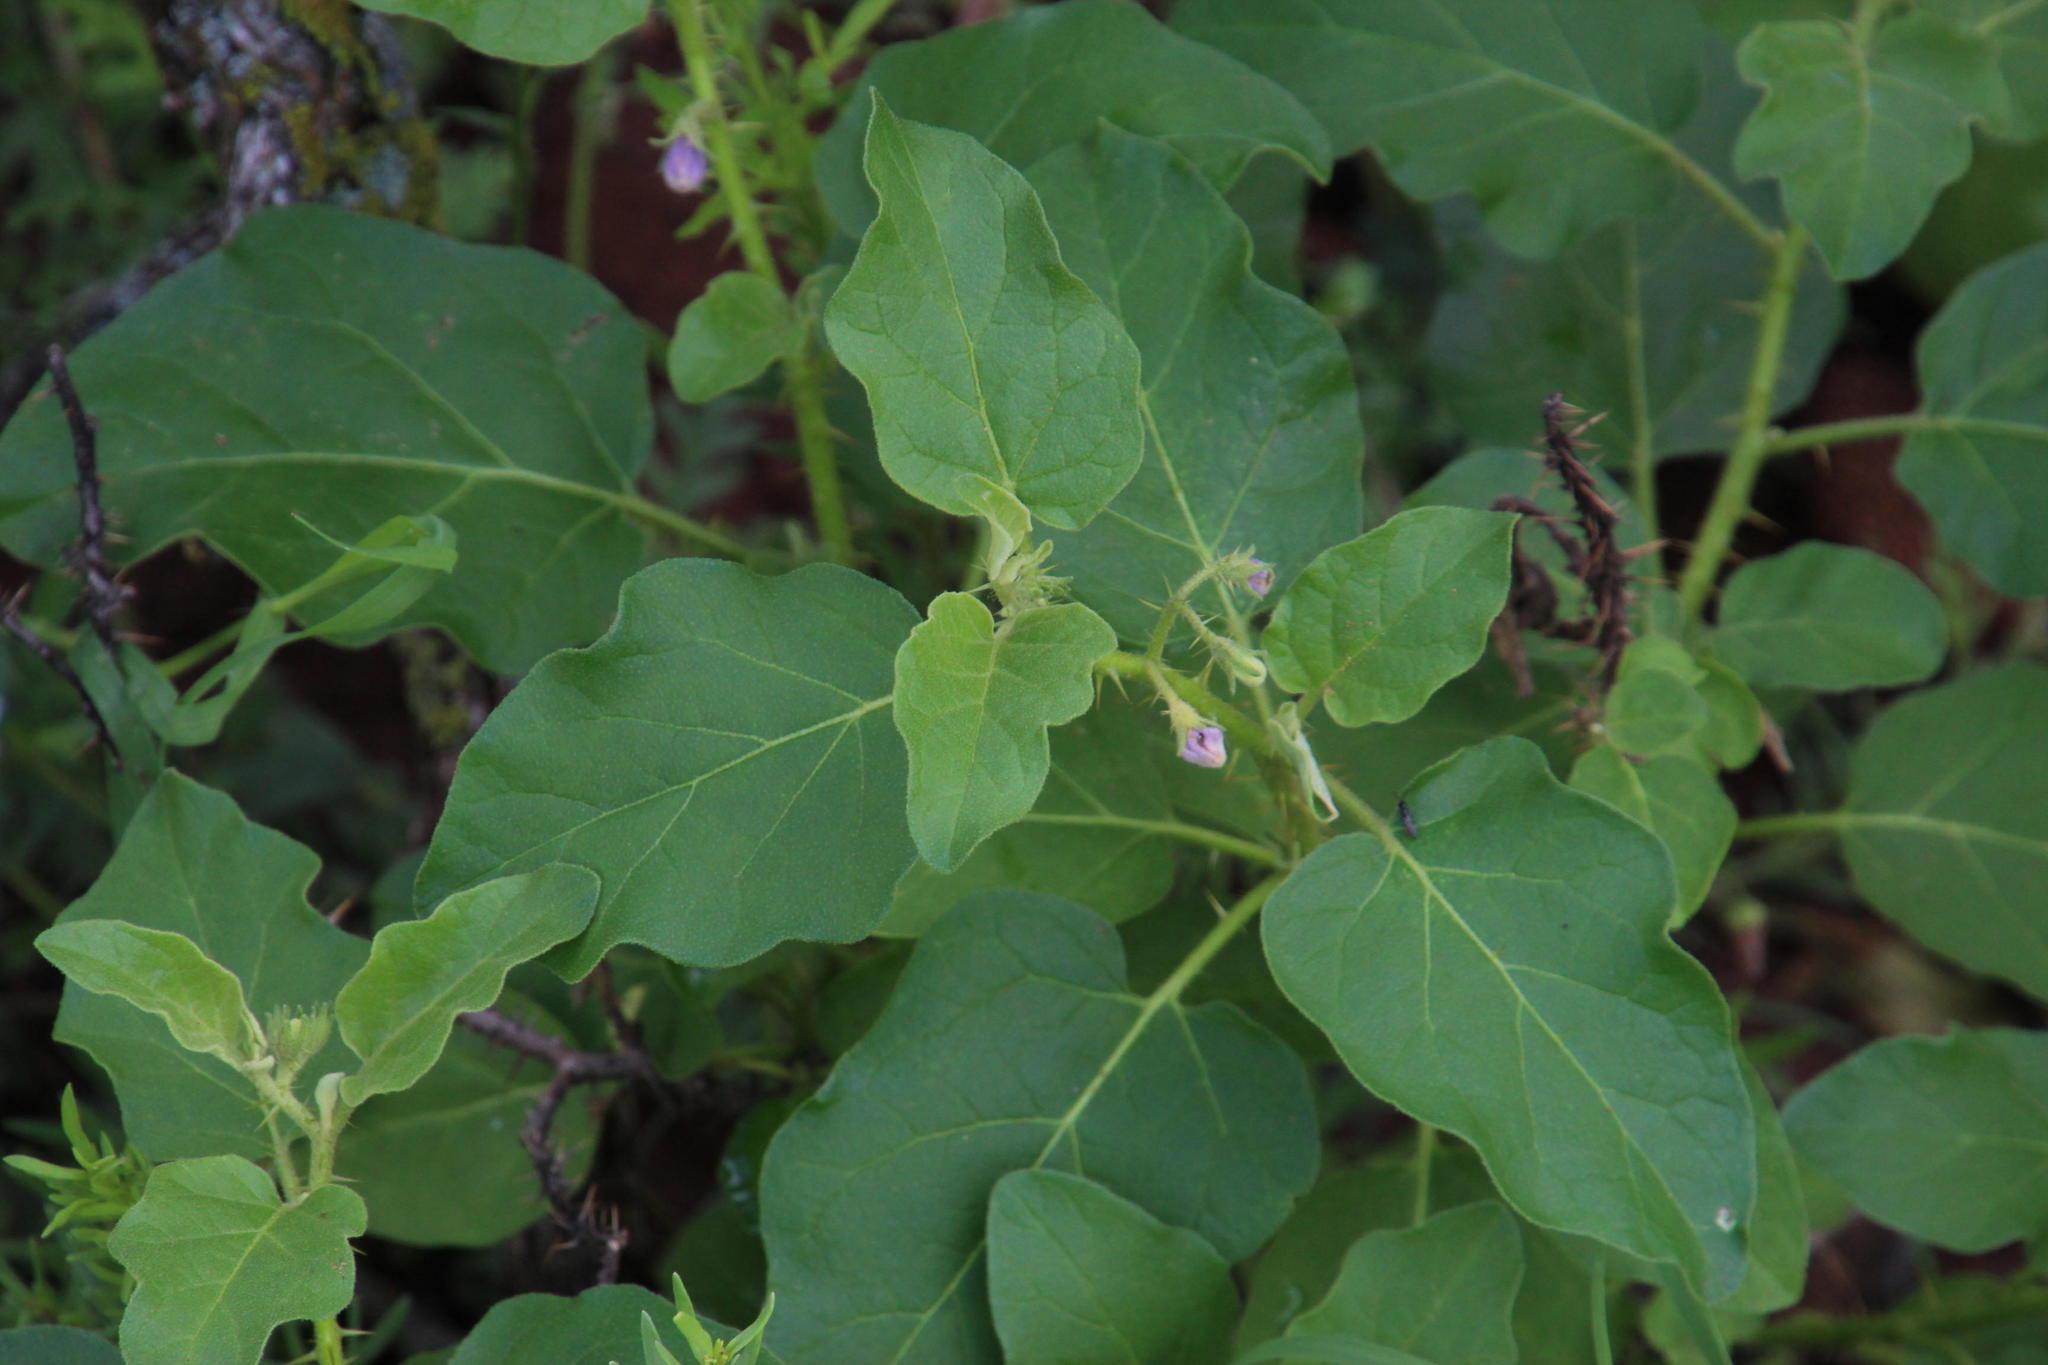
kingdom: Plantae
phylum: Tracheophyta
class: Magnoliopsida
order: Solanales
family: Solanaceae
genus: Solanum
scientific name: Solanum tomentosum
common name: Wild aubergine
